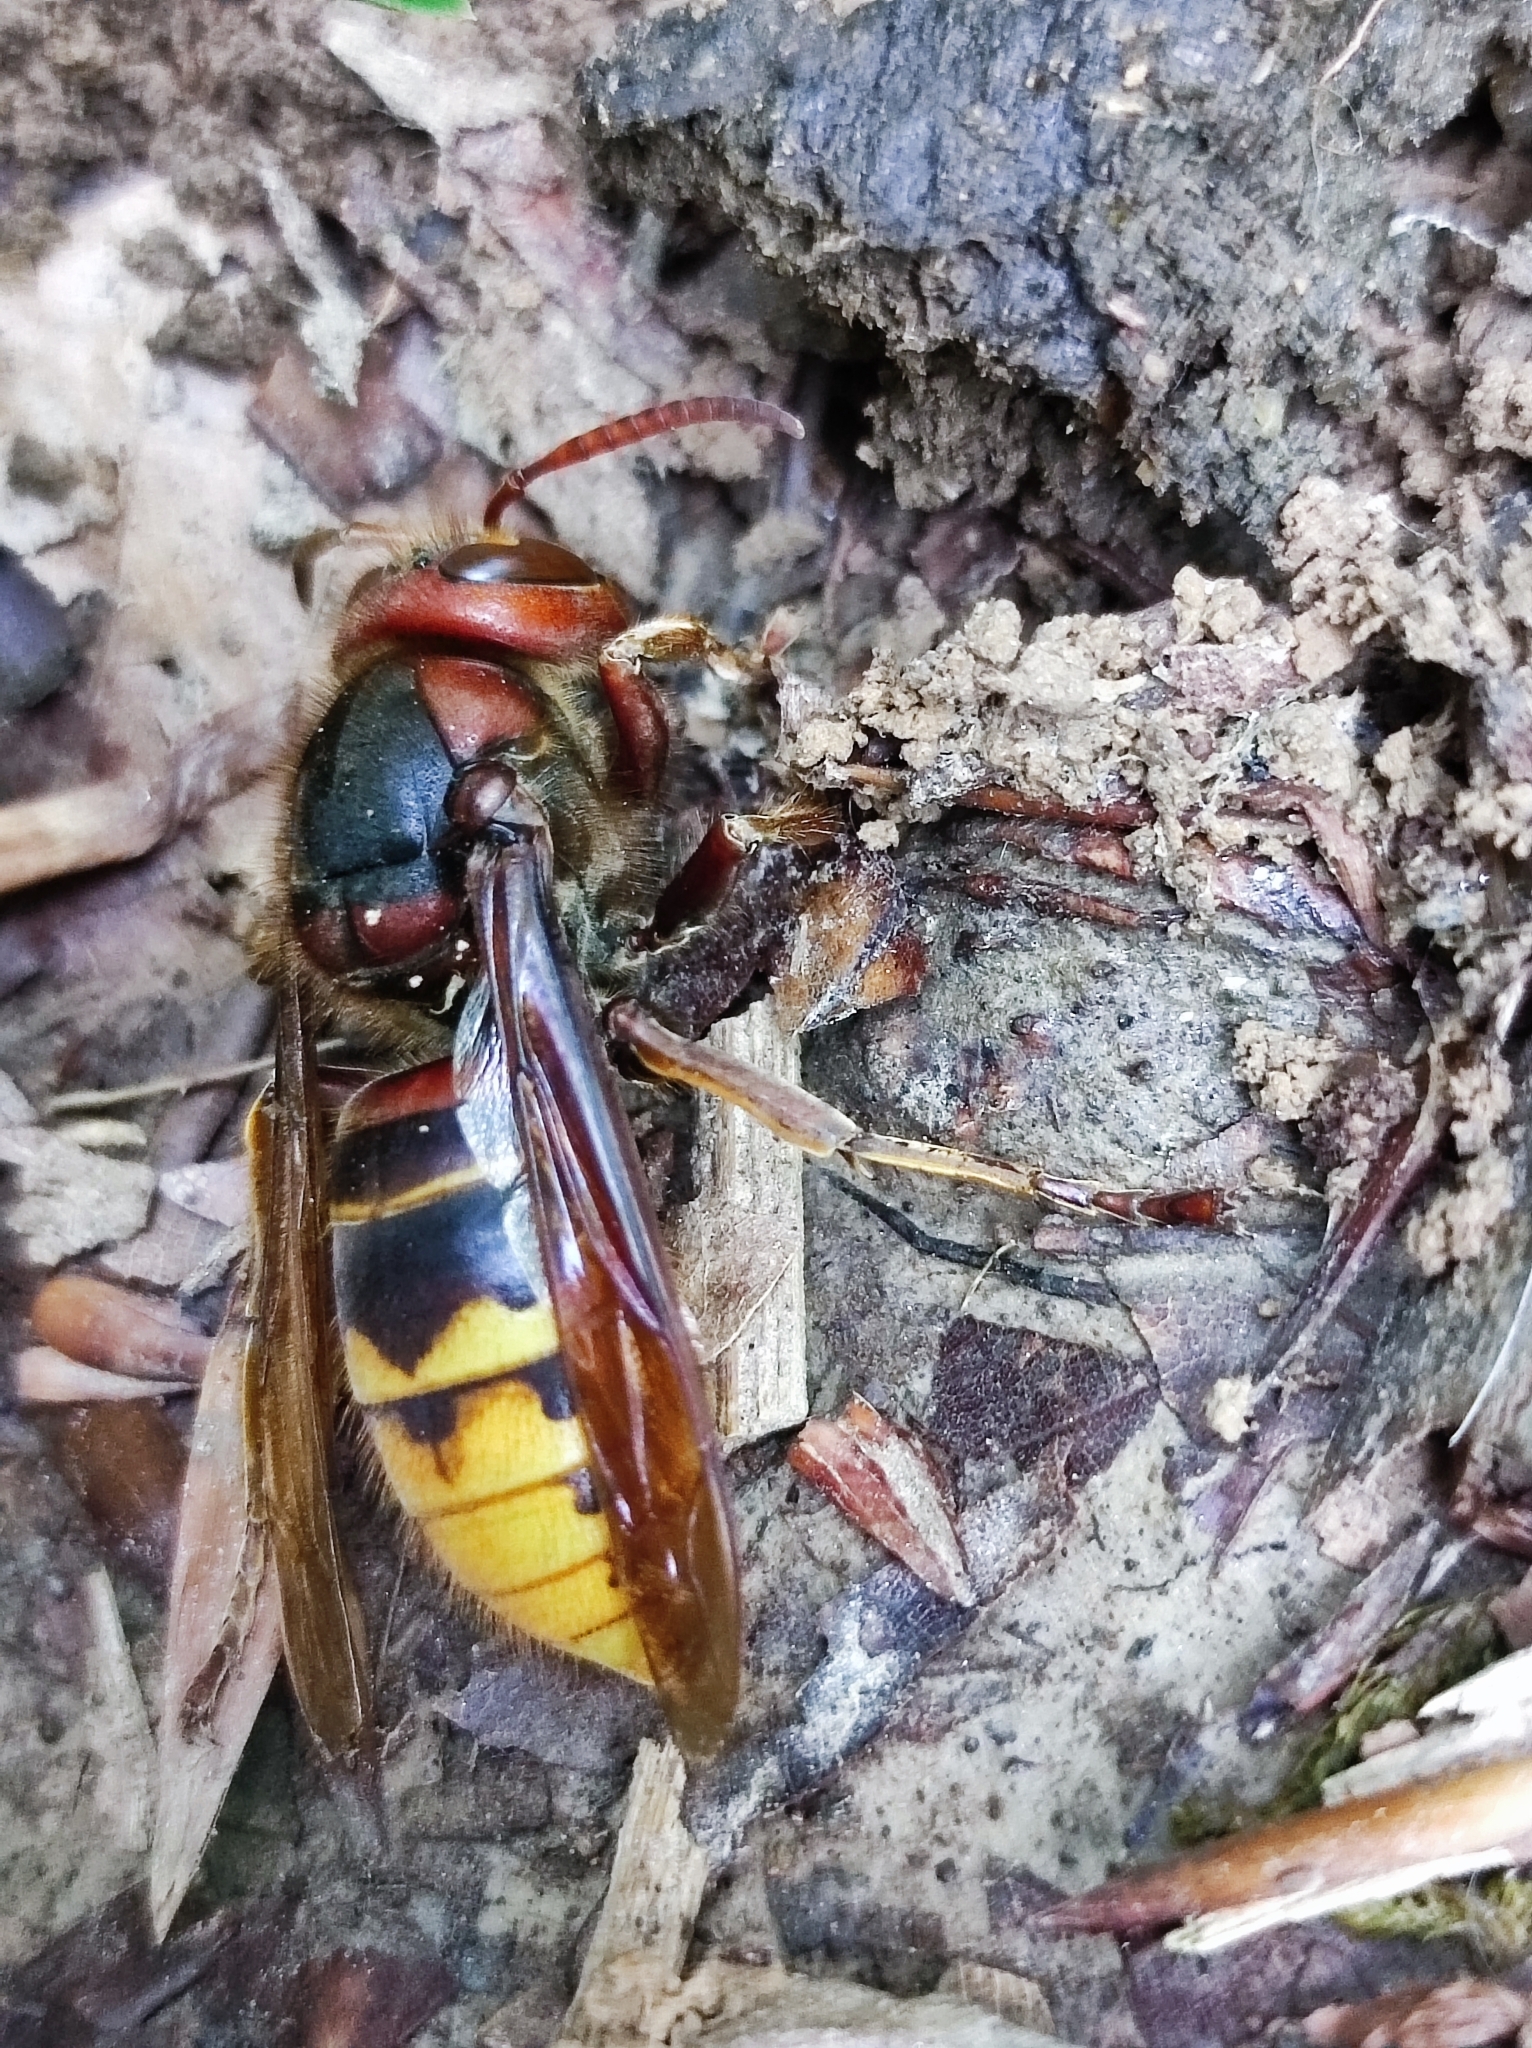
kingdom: Animalia
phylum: Arthropoda
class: Insecta
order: Hymenoptera
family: Vespidae
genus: Vespa
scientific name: Vespa crabro
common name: Hornet
